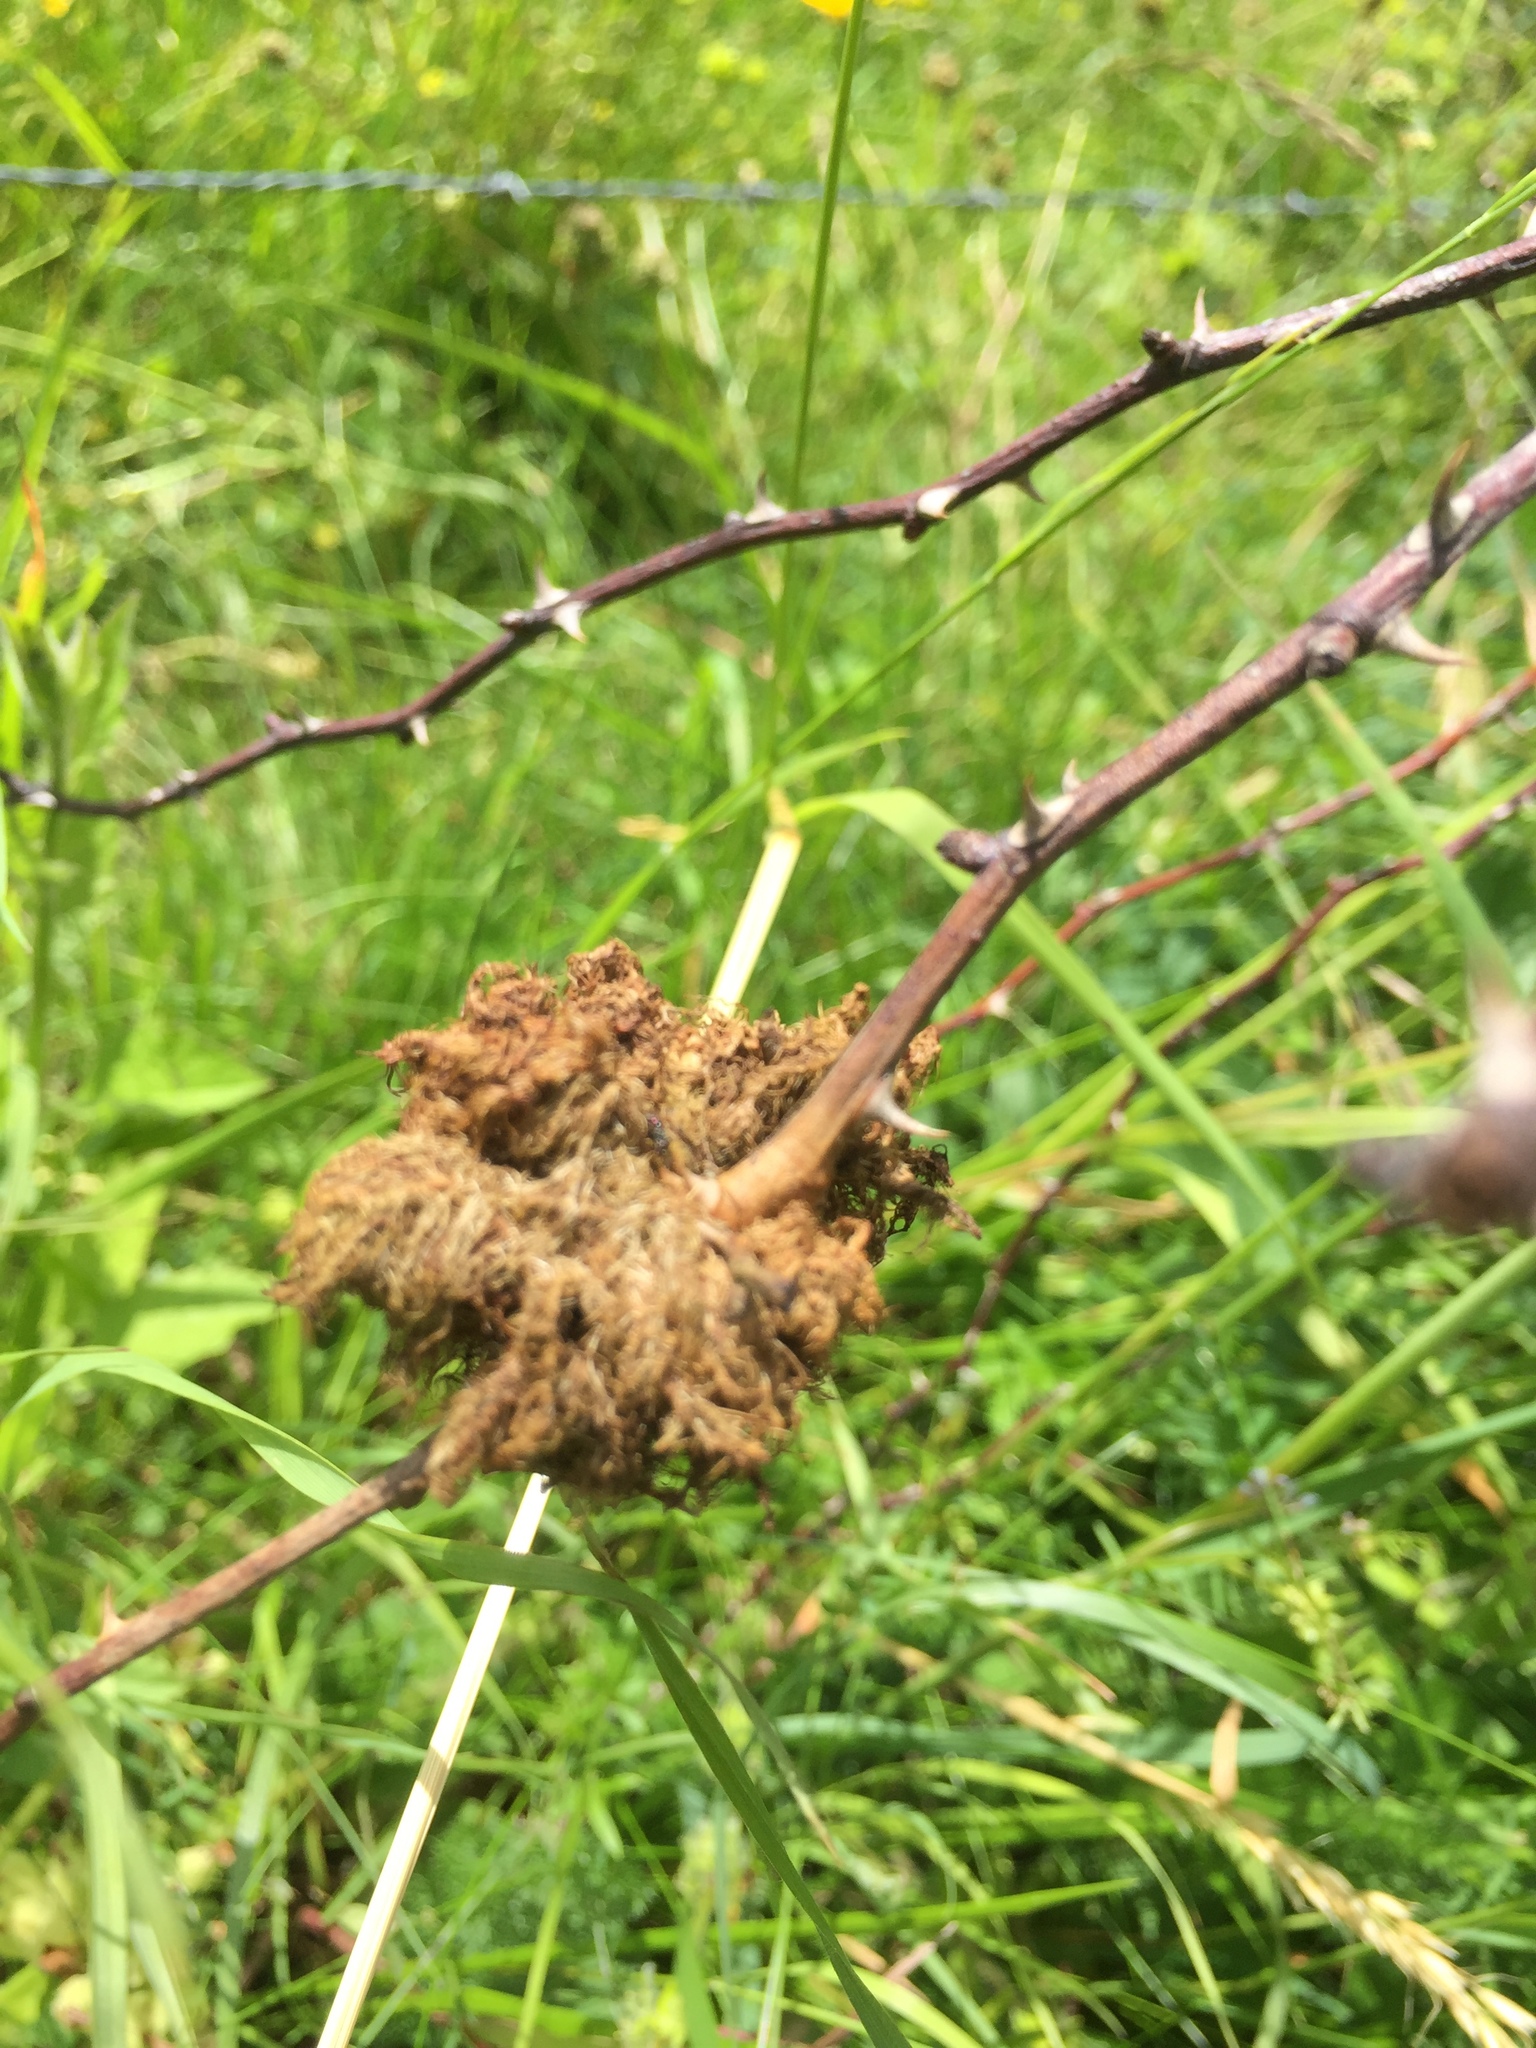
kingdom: Animalia
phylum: Arthropoda
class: Insecta
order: Hymenoptera
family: Cynipidae
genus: Diplolepis
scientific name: Diplolepis rosae
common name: Bedeguar gall
